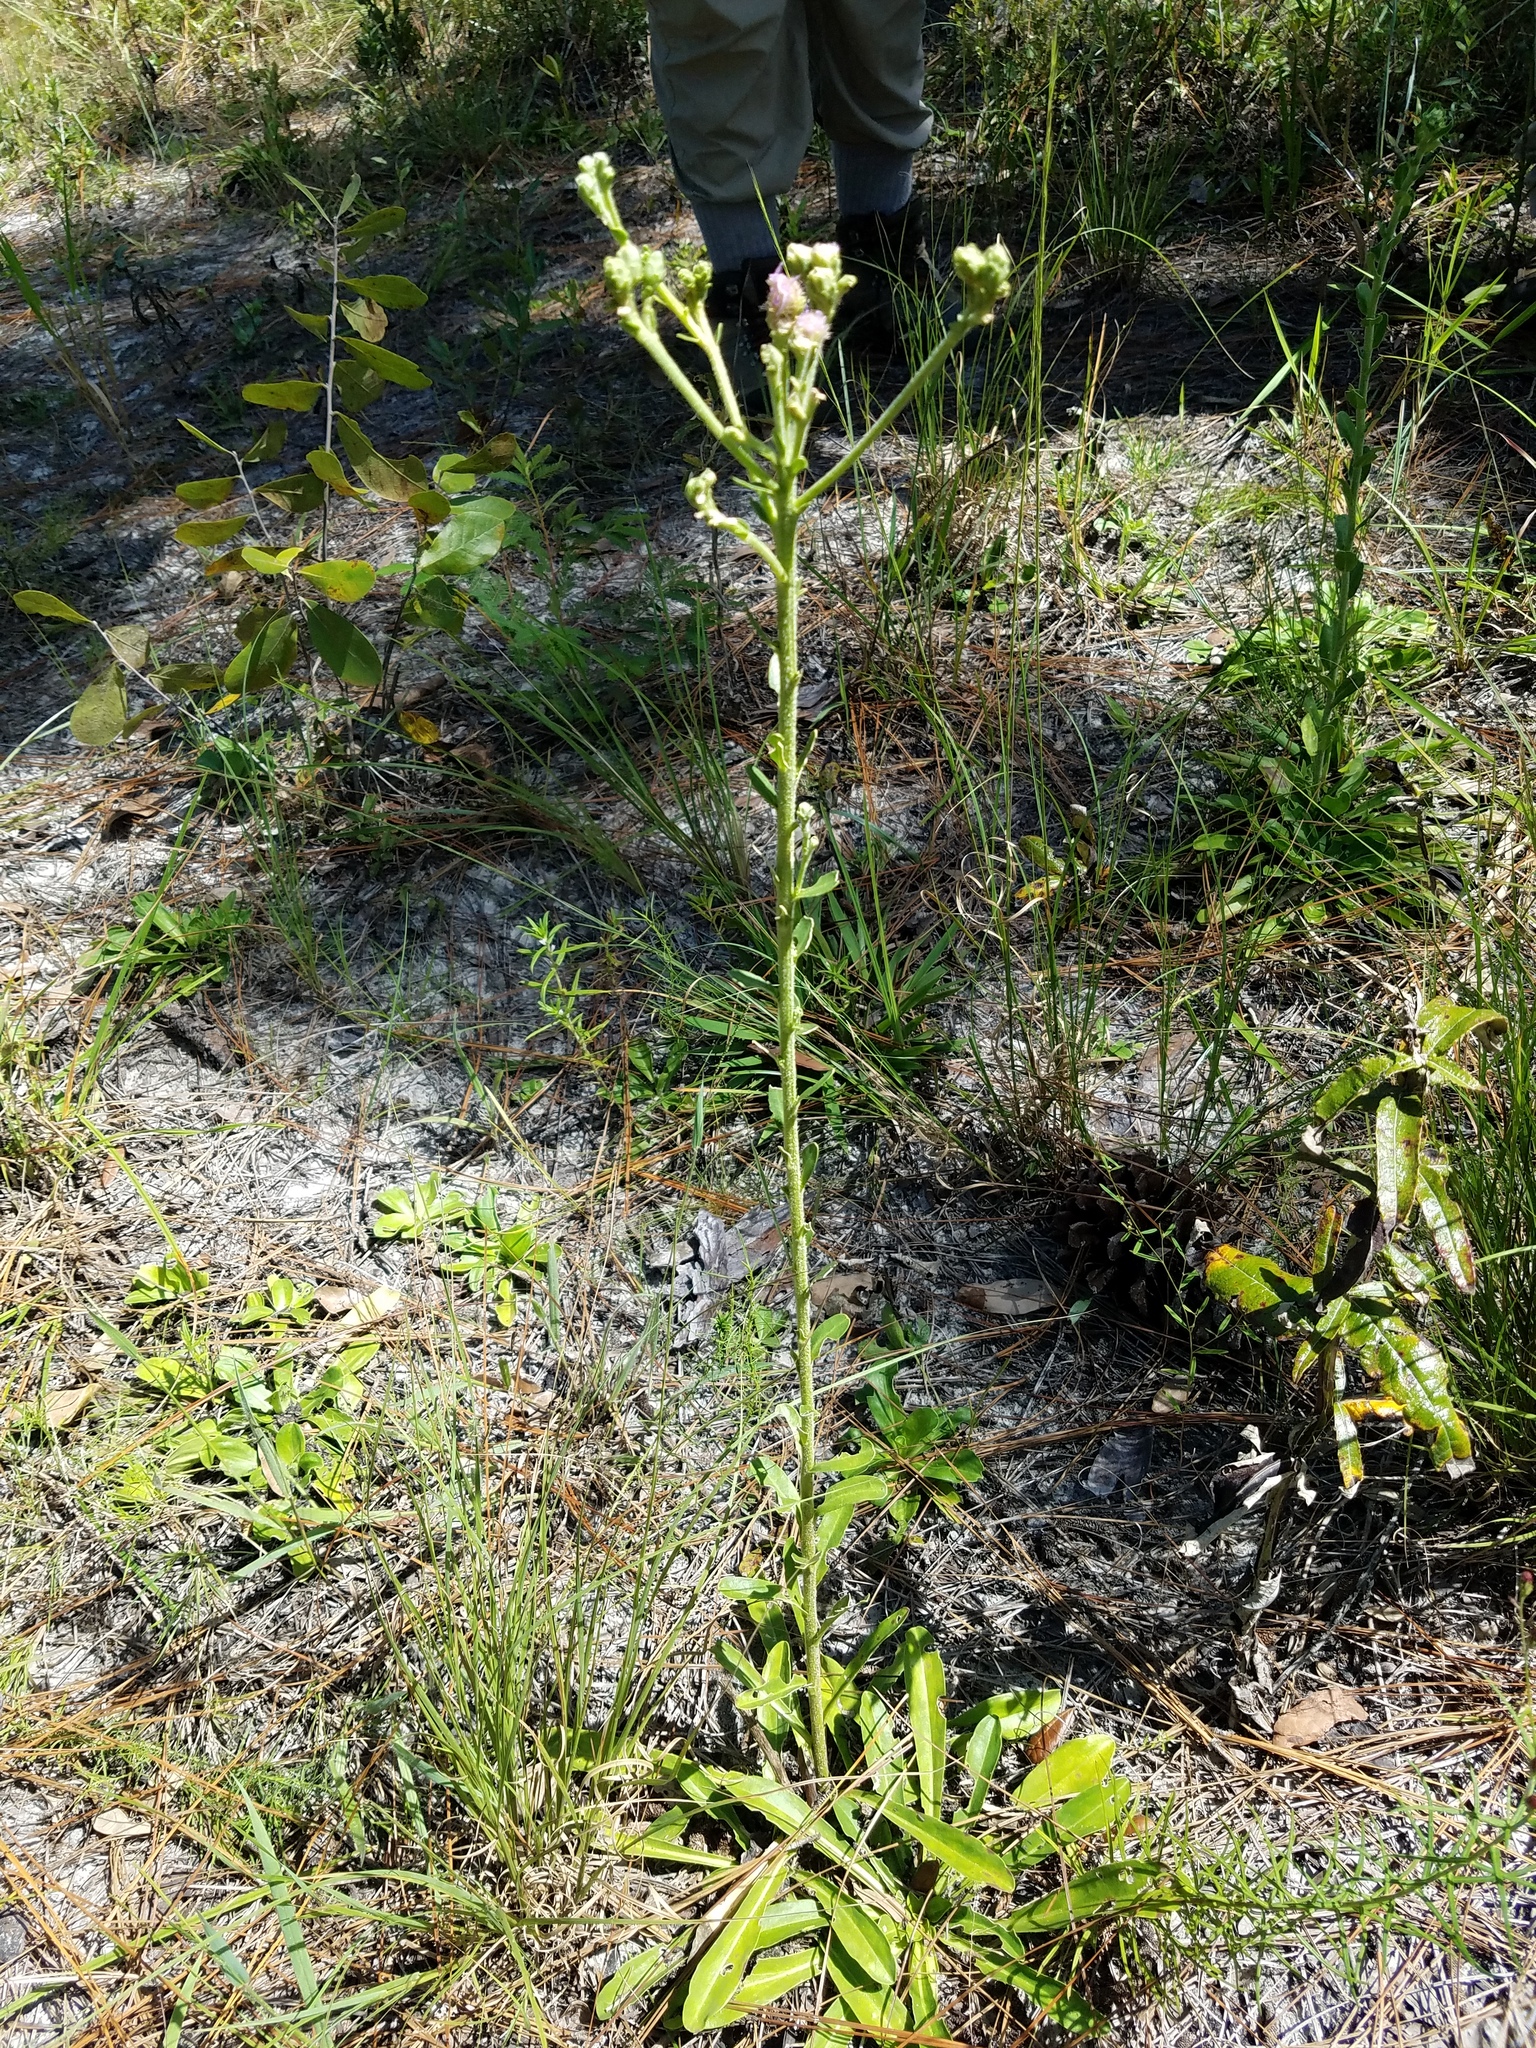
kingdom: Plantae
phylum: Tracheophyta
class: Magnoliopsida
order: Asterales
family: Asteraceae
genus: Carphephorus
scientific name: Carphephorus corymbosus
